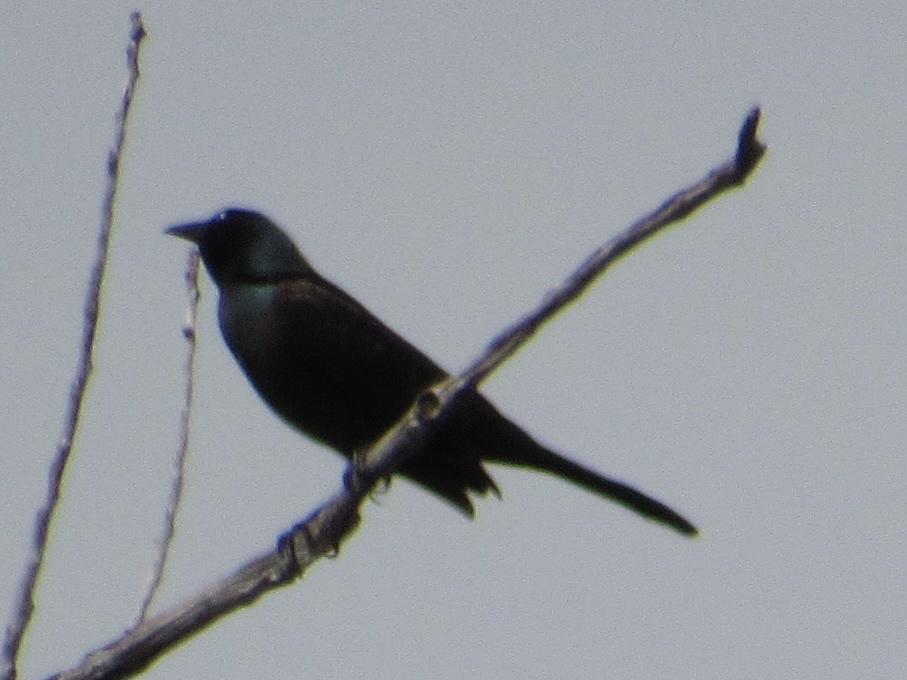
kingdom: Animalia
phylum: Chordata
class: Aves
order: Passeriformes
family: Icteridae
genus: Quiscalus
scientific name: Quiscalus quiscula
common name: Common grackle
